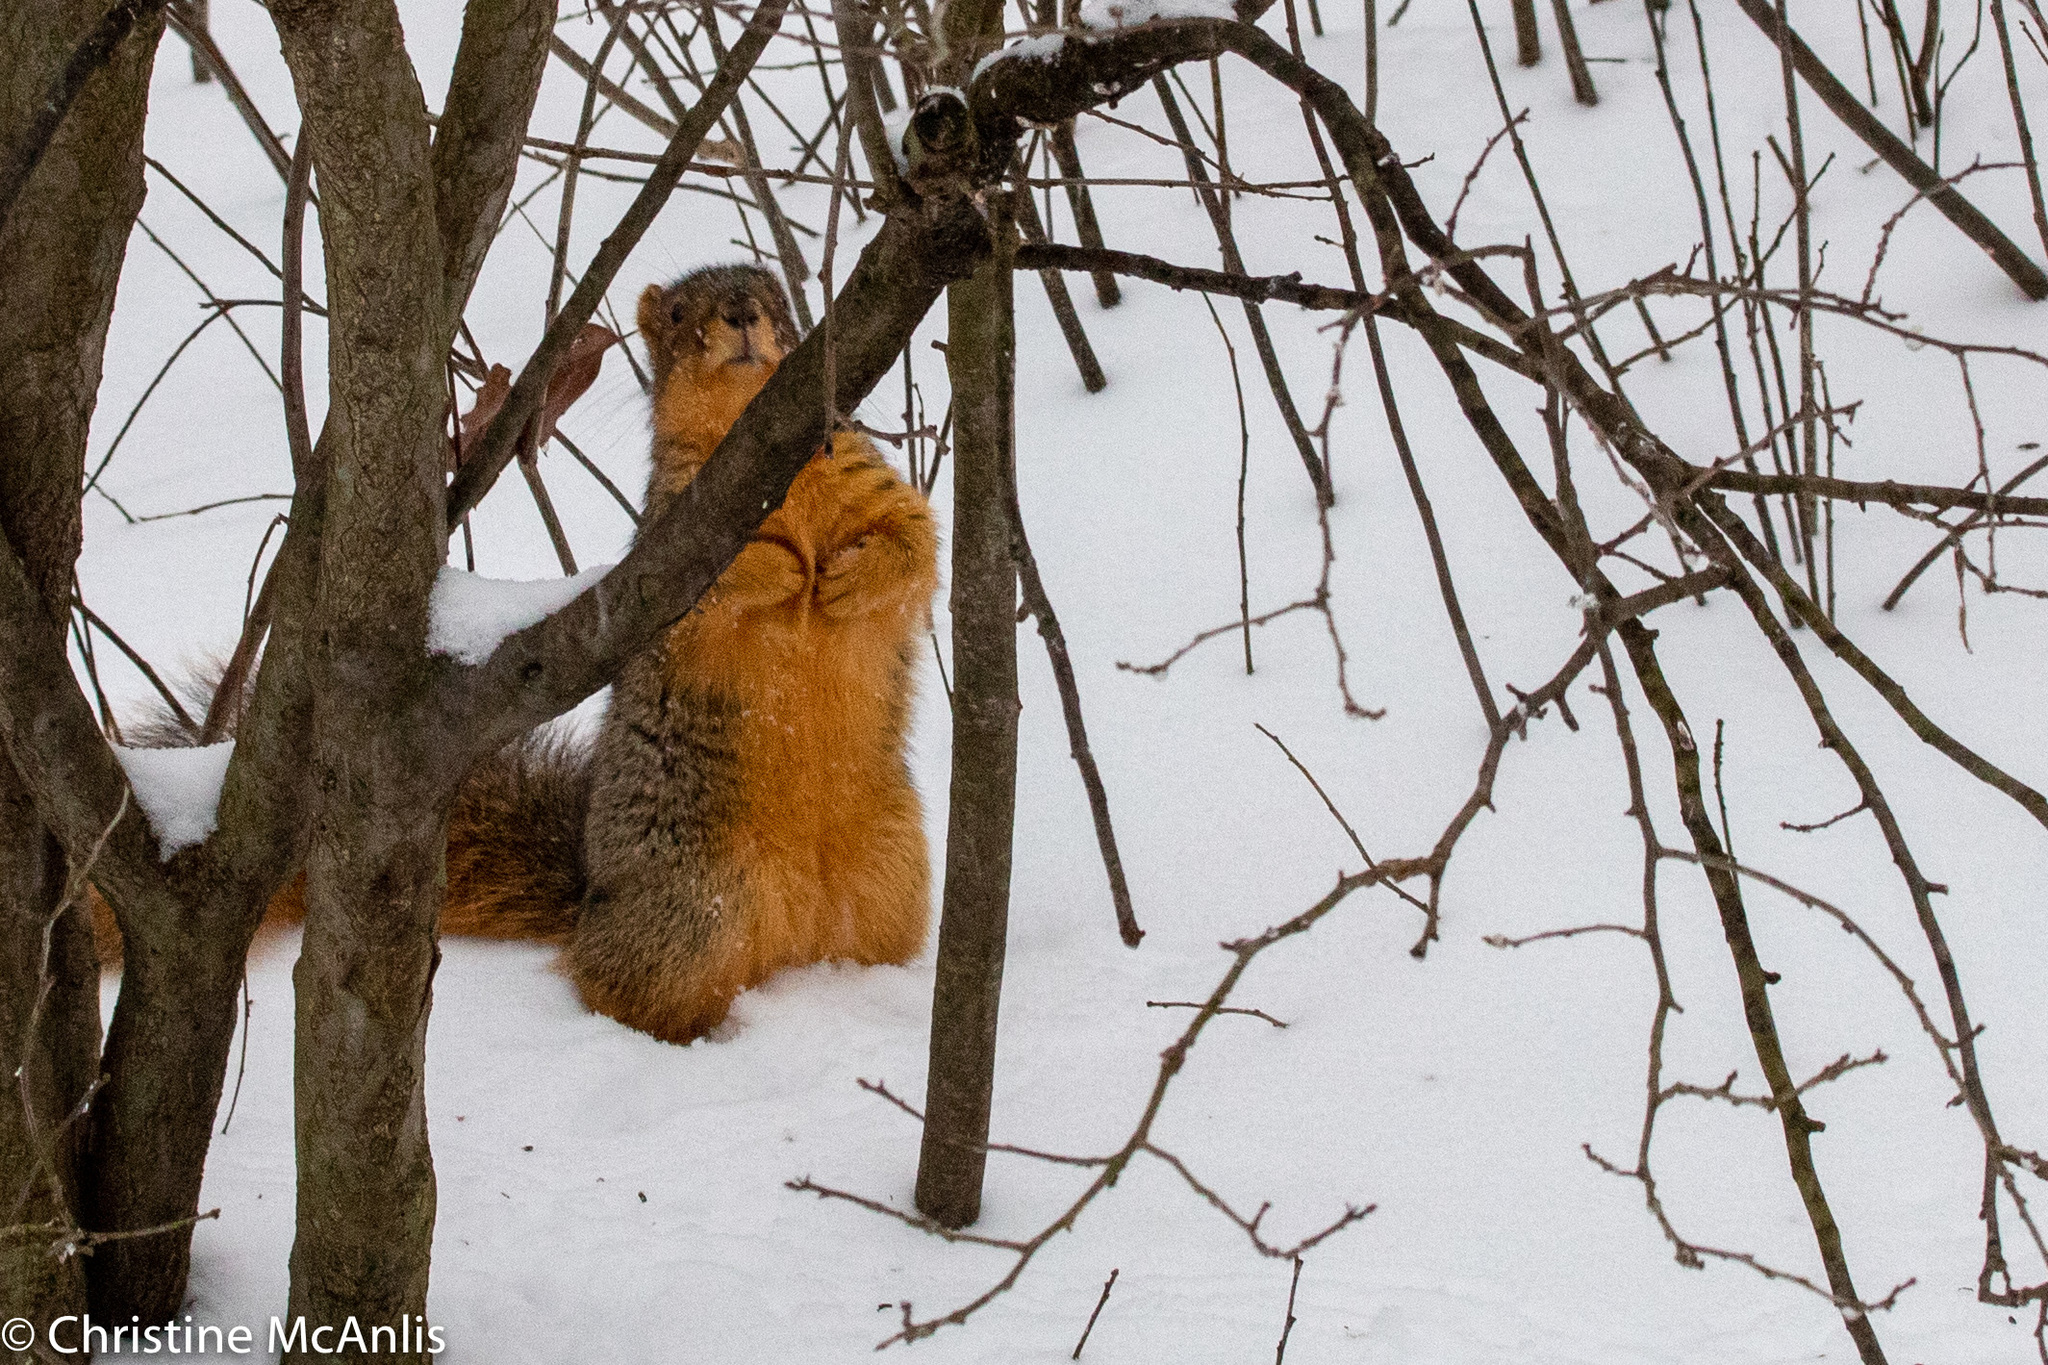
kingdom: Animalia
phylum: Chordata
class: Mammalia
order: Rodentia
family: Sciuridae
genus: Sciurus
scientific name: Sciurus niger
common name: Fox squirrel
